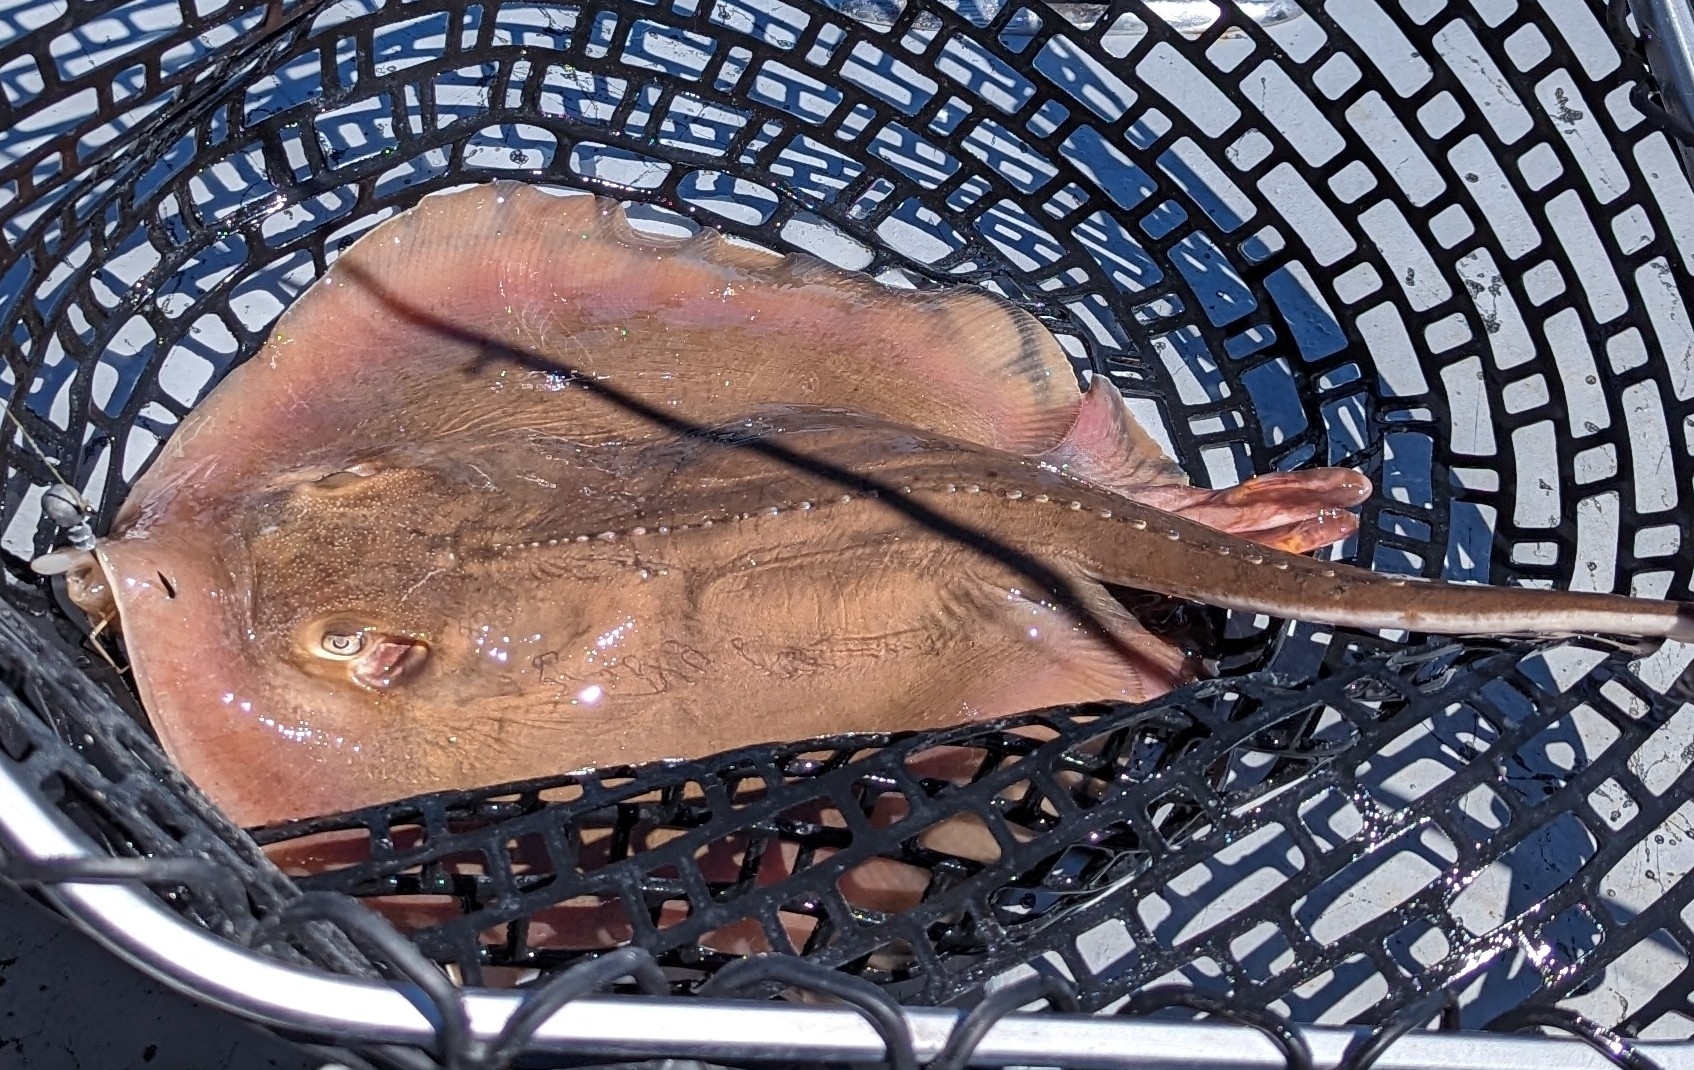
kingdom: Animalia
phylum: Chordata
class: Elasmobranchii
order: Myliobatiformes
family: Dasyatidae
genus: Hypanus
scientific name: Hypanus sabinus
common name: Atlantic stingray
